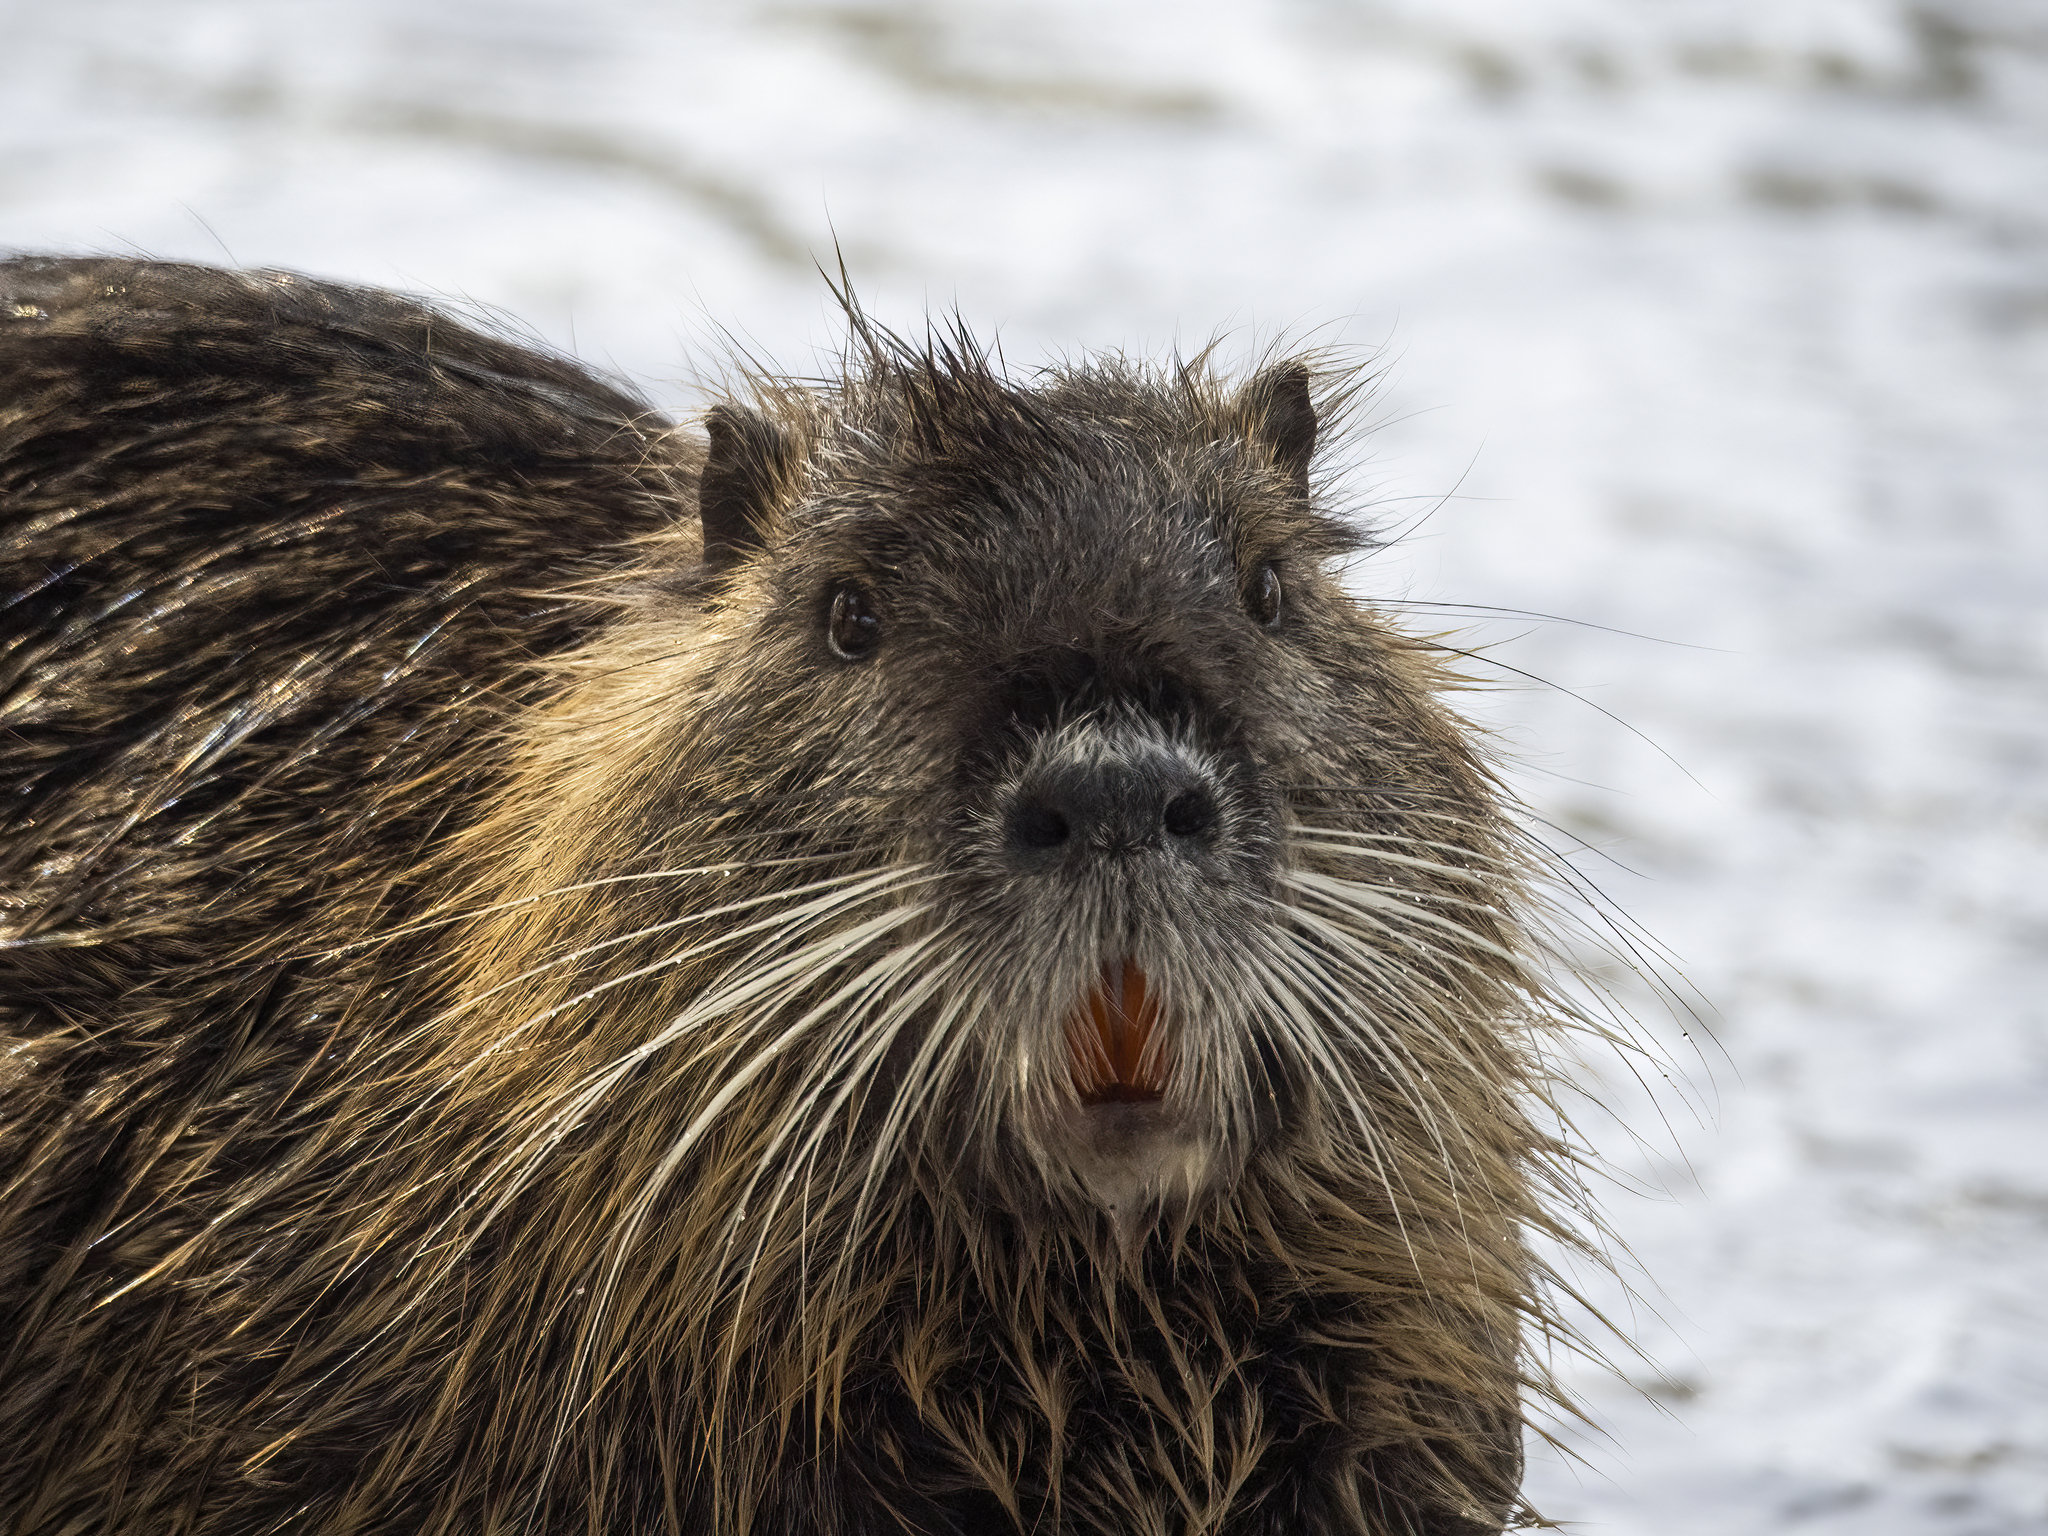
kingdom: Animalia
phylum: Chordata
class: Mammalia
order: Rodentia
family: Myocastoridae
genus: Myocastor
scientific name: Myocastor coypus
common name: Coypu
